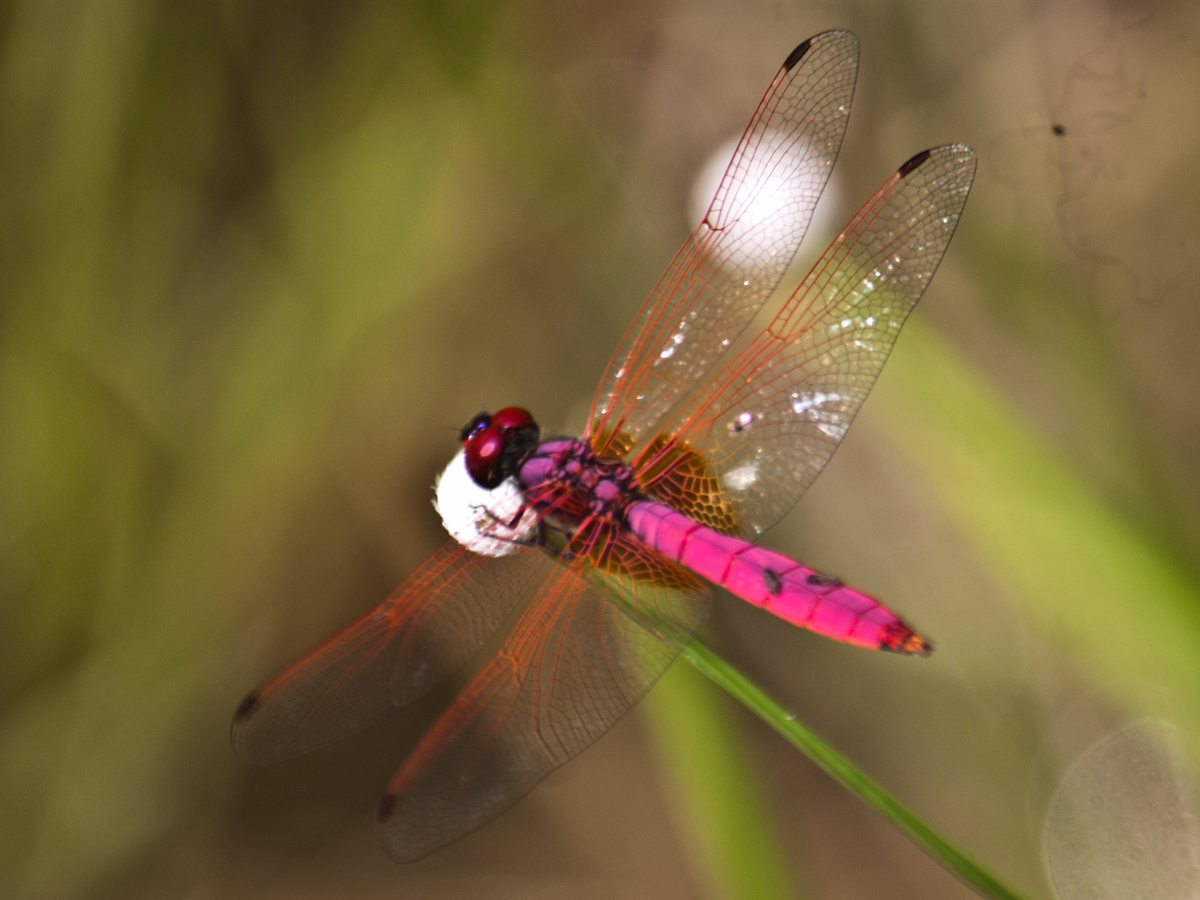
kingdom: Animalia
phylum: Arthropoda
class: Insecta
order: Odonata
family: Libellulidae
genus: Trithemis
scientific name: Trithemis aurora
